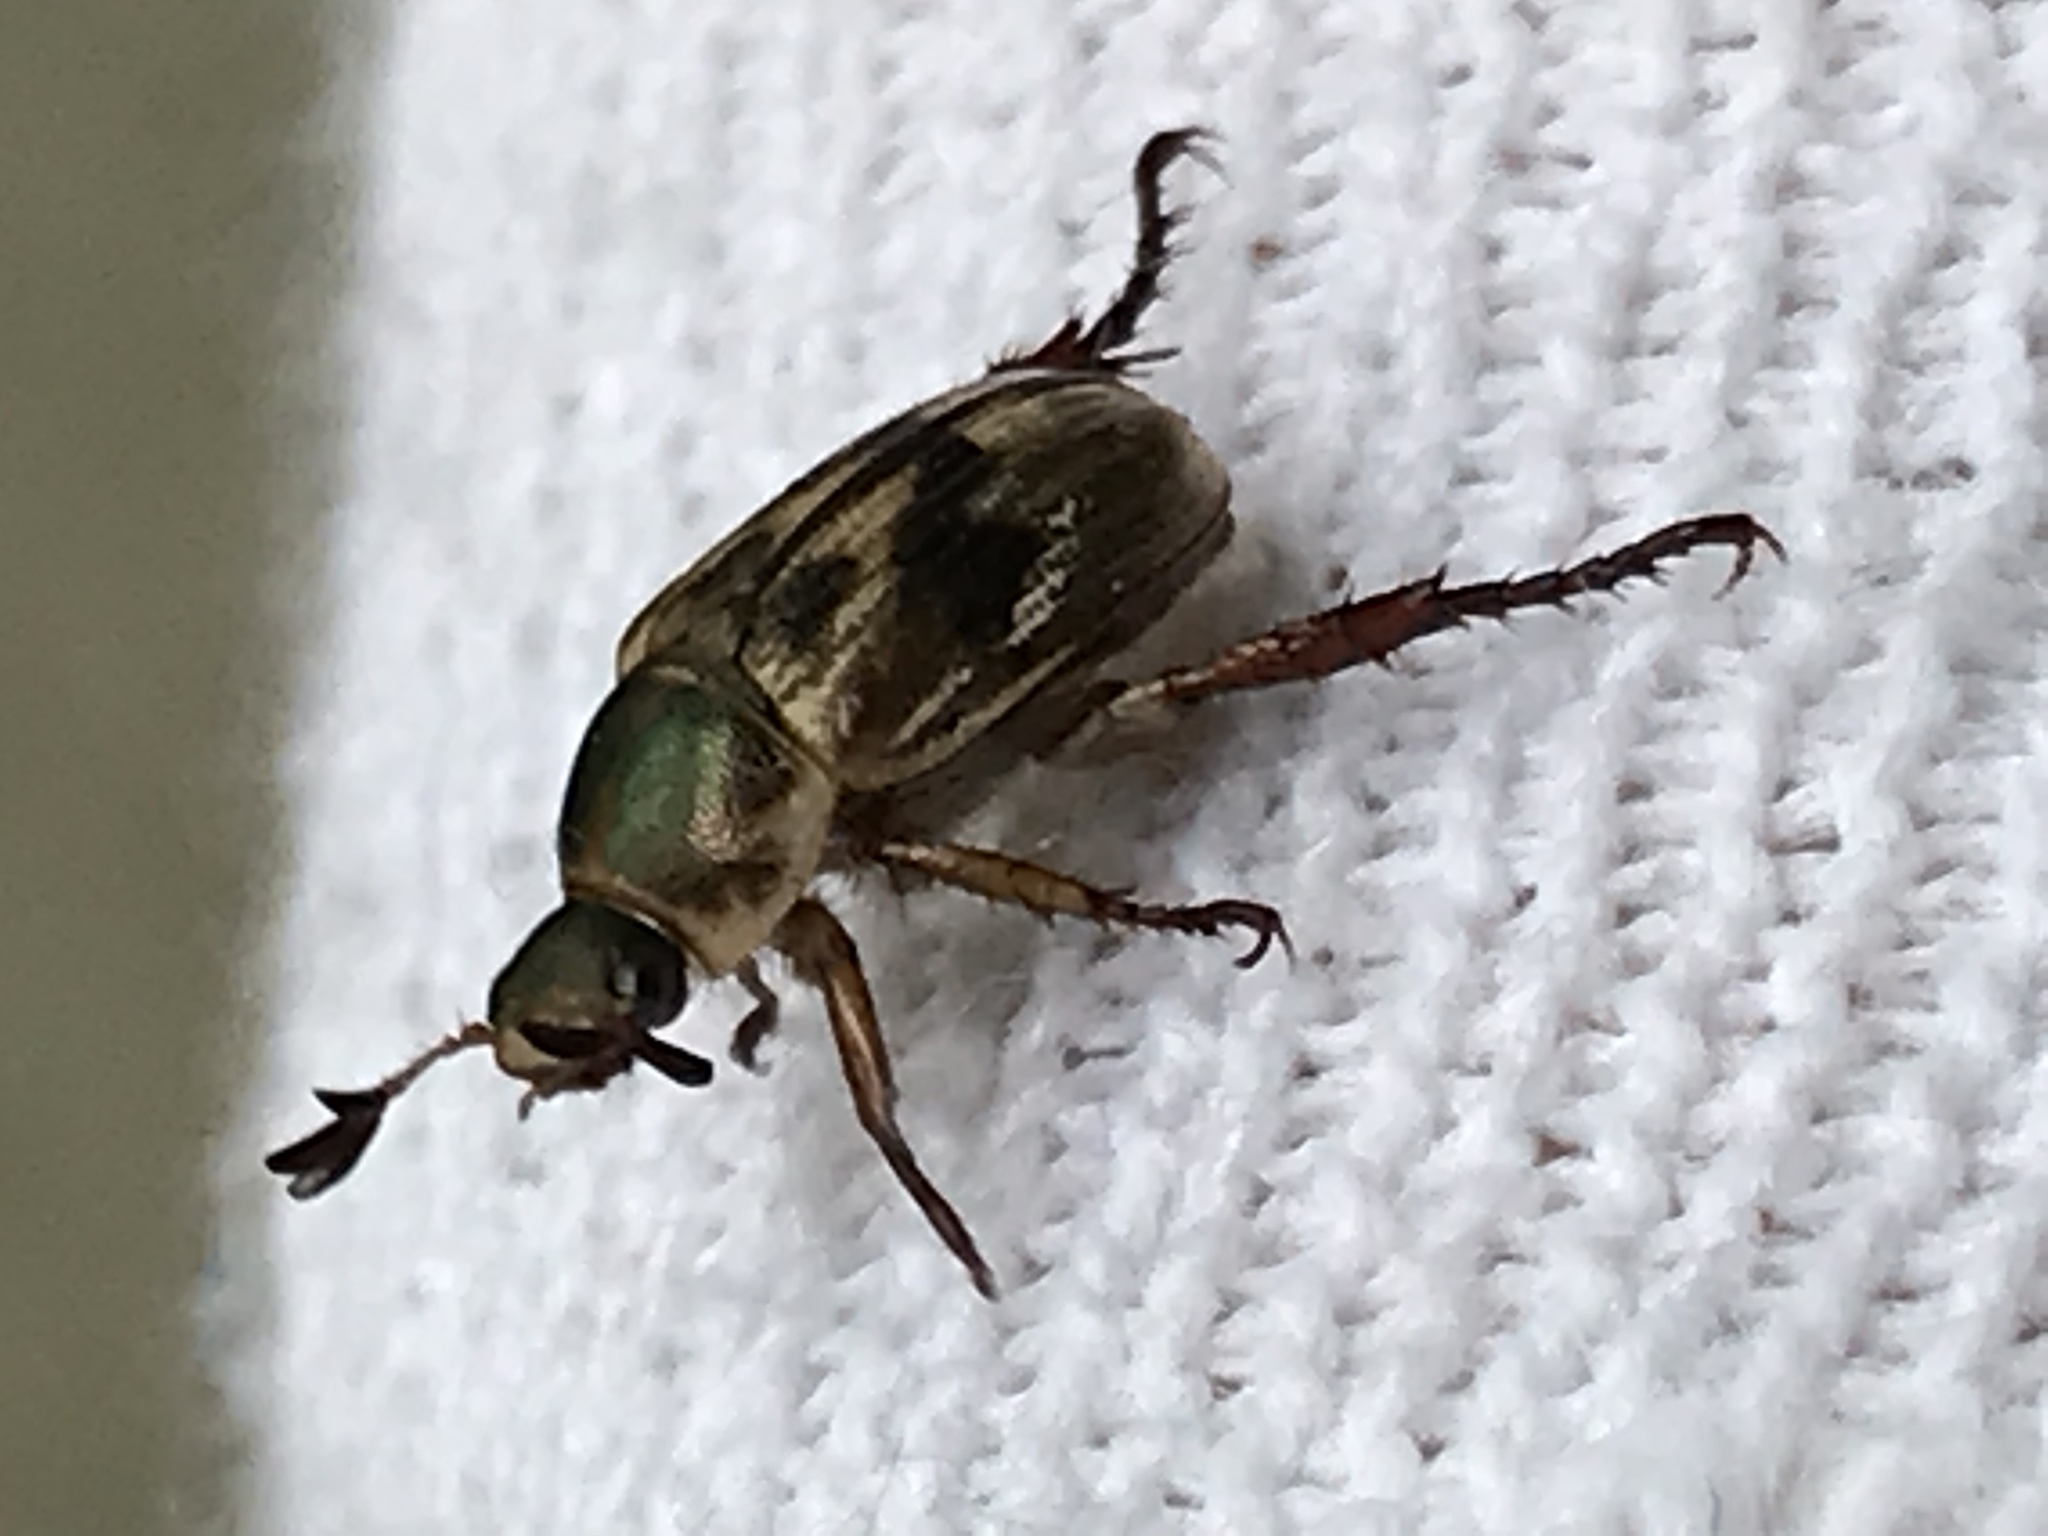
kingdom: Animalia
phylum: Arthropoda
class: Insecta
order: Coleoptera
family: Scarabaeidae
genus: Exomala
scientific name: Exomala orientalis
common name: Oriental beetle
